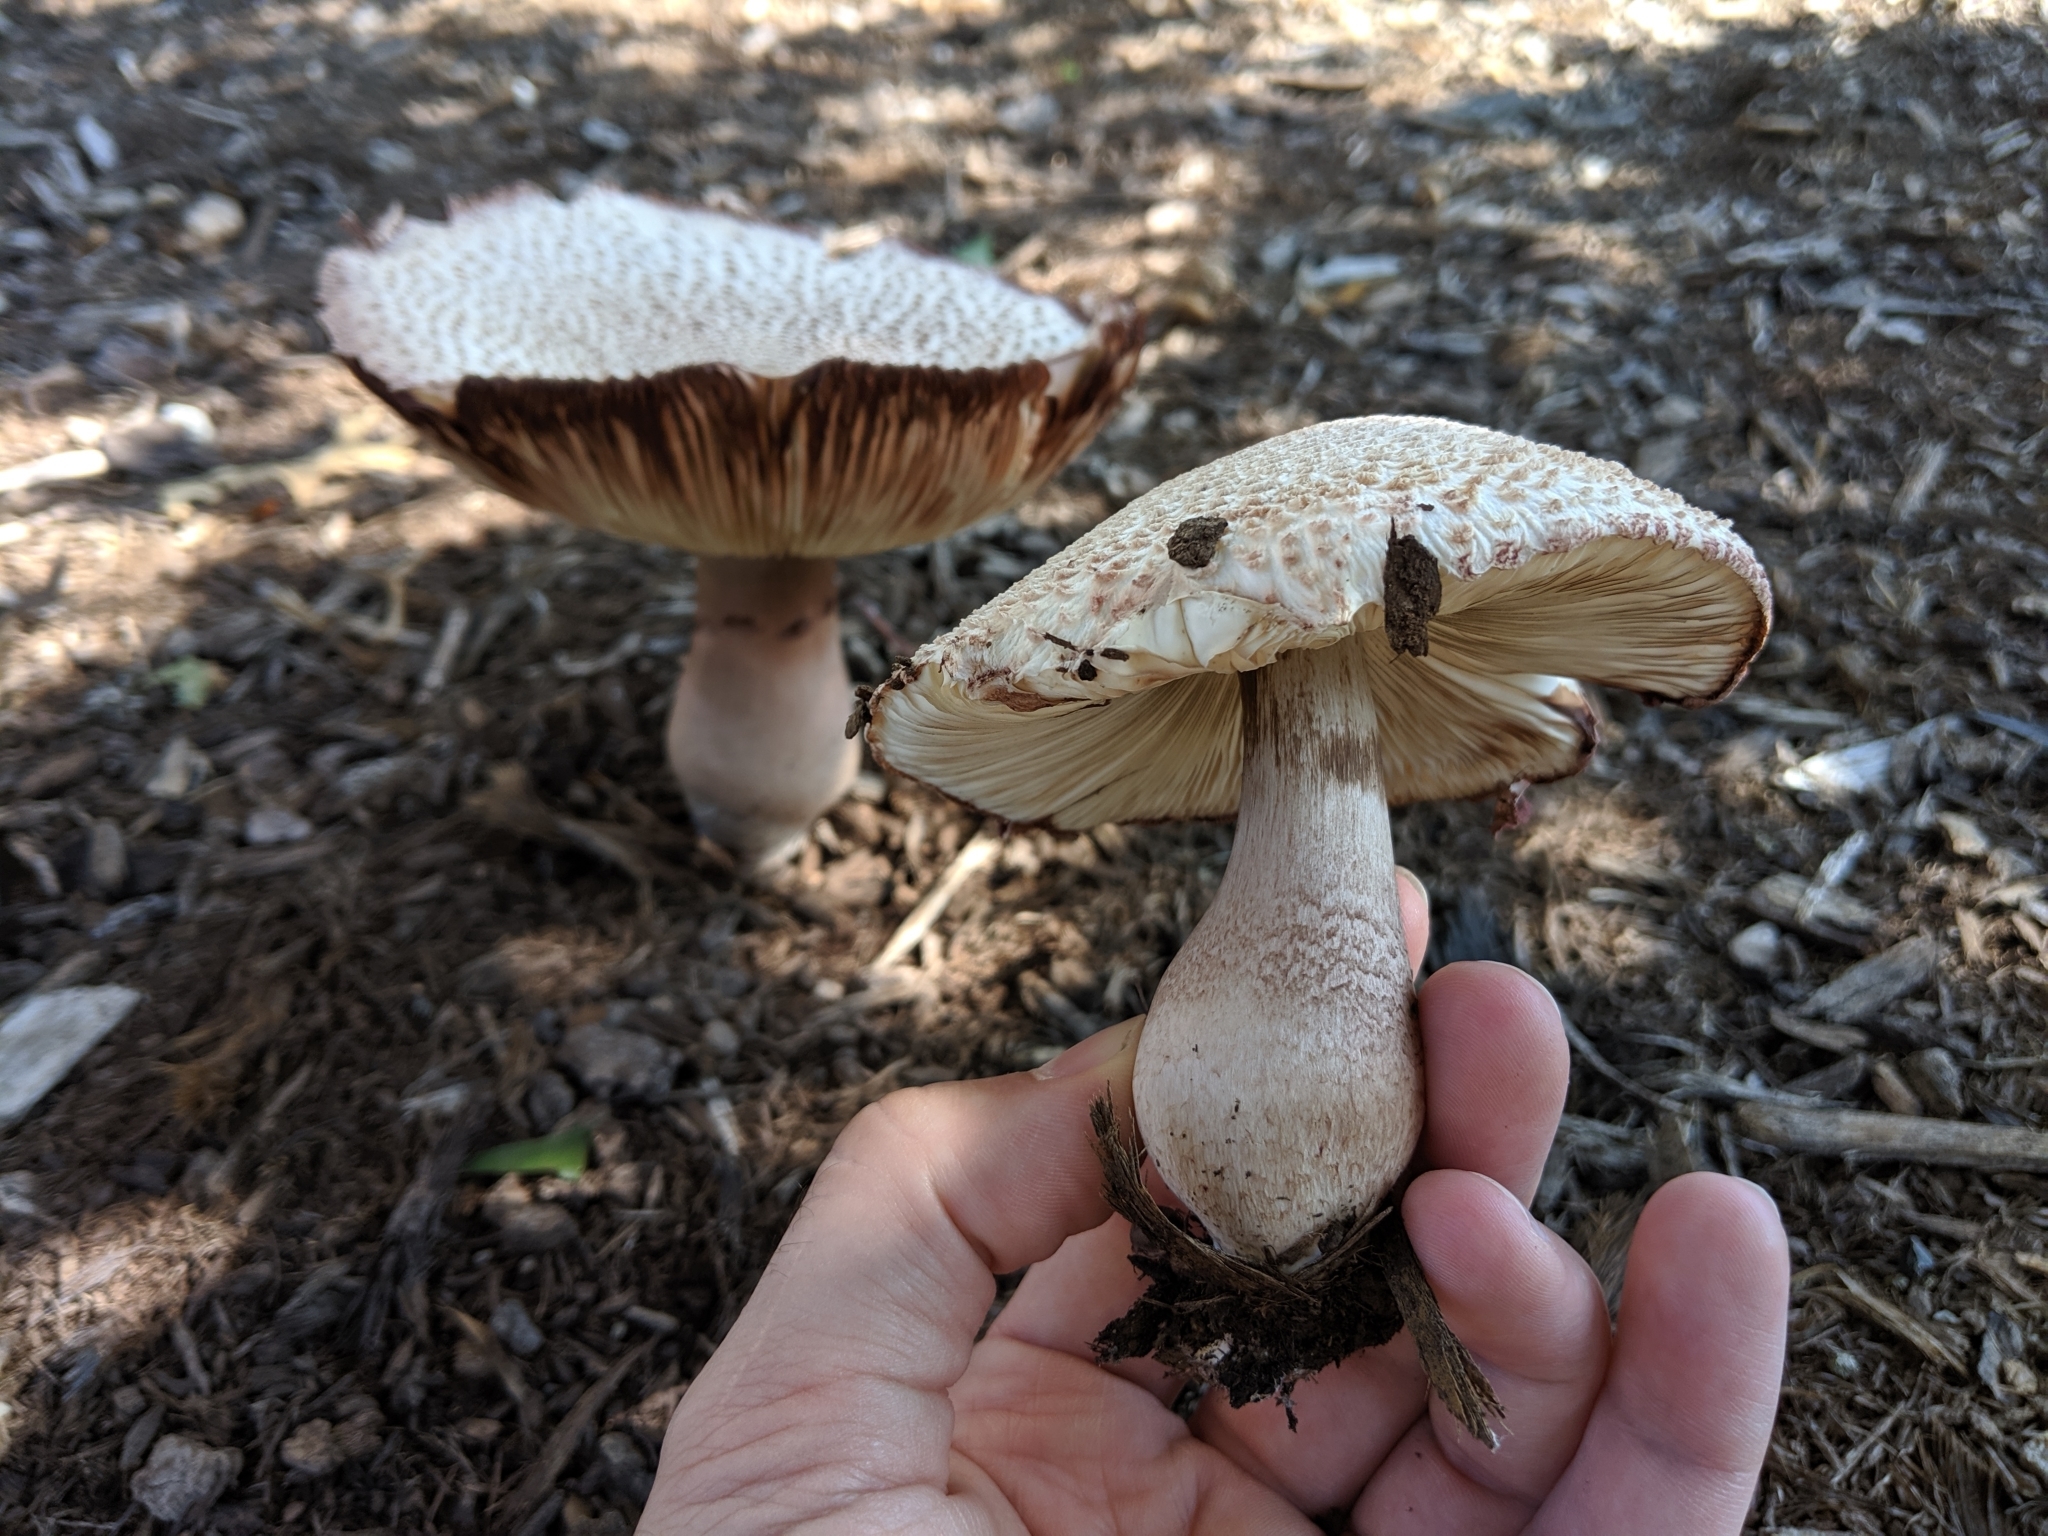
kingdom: Fungi
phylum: Basidiomycota
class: Agaricomycetes
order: Agaricales
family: Agaricaceae
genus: Leucoagaricus
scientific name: Leucoagaricus americanus
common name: Reddening lepiota
